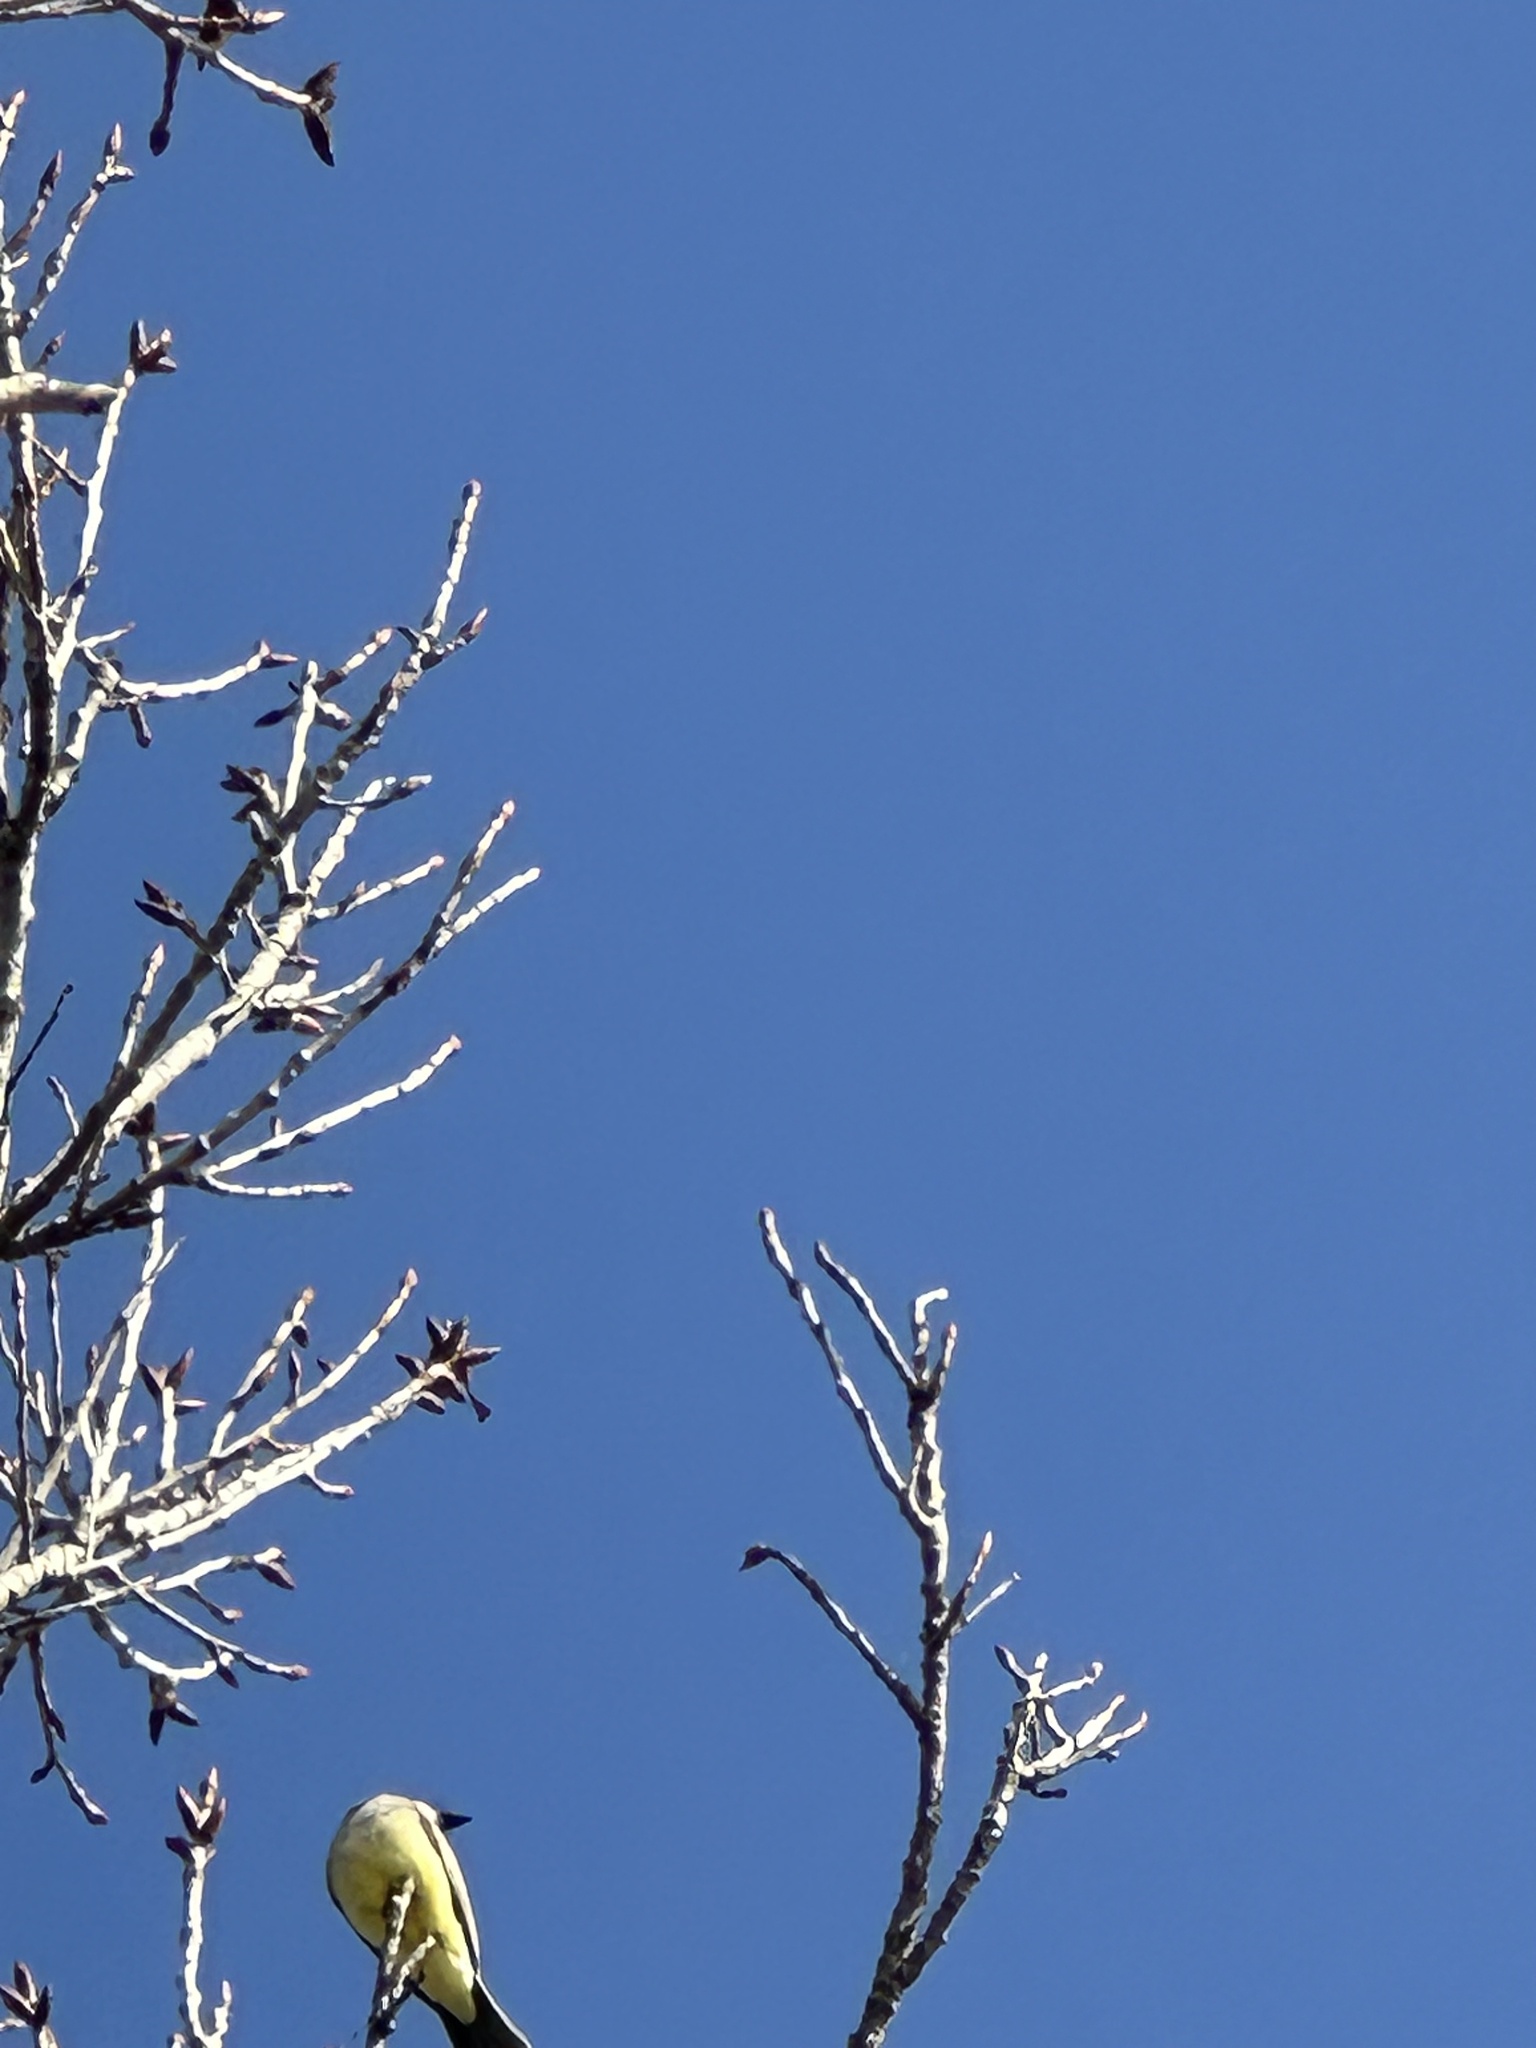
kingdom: Animalia
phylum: Chordata
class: Aves
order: Passeriformes
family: Tyrannidae
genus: Tyrannus
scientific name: Tyrannus vociferans
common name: Cassin's kingbird
